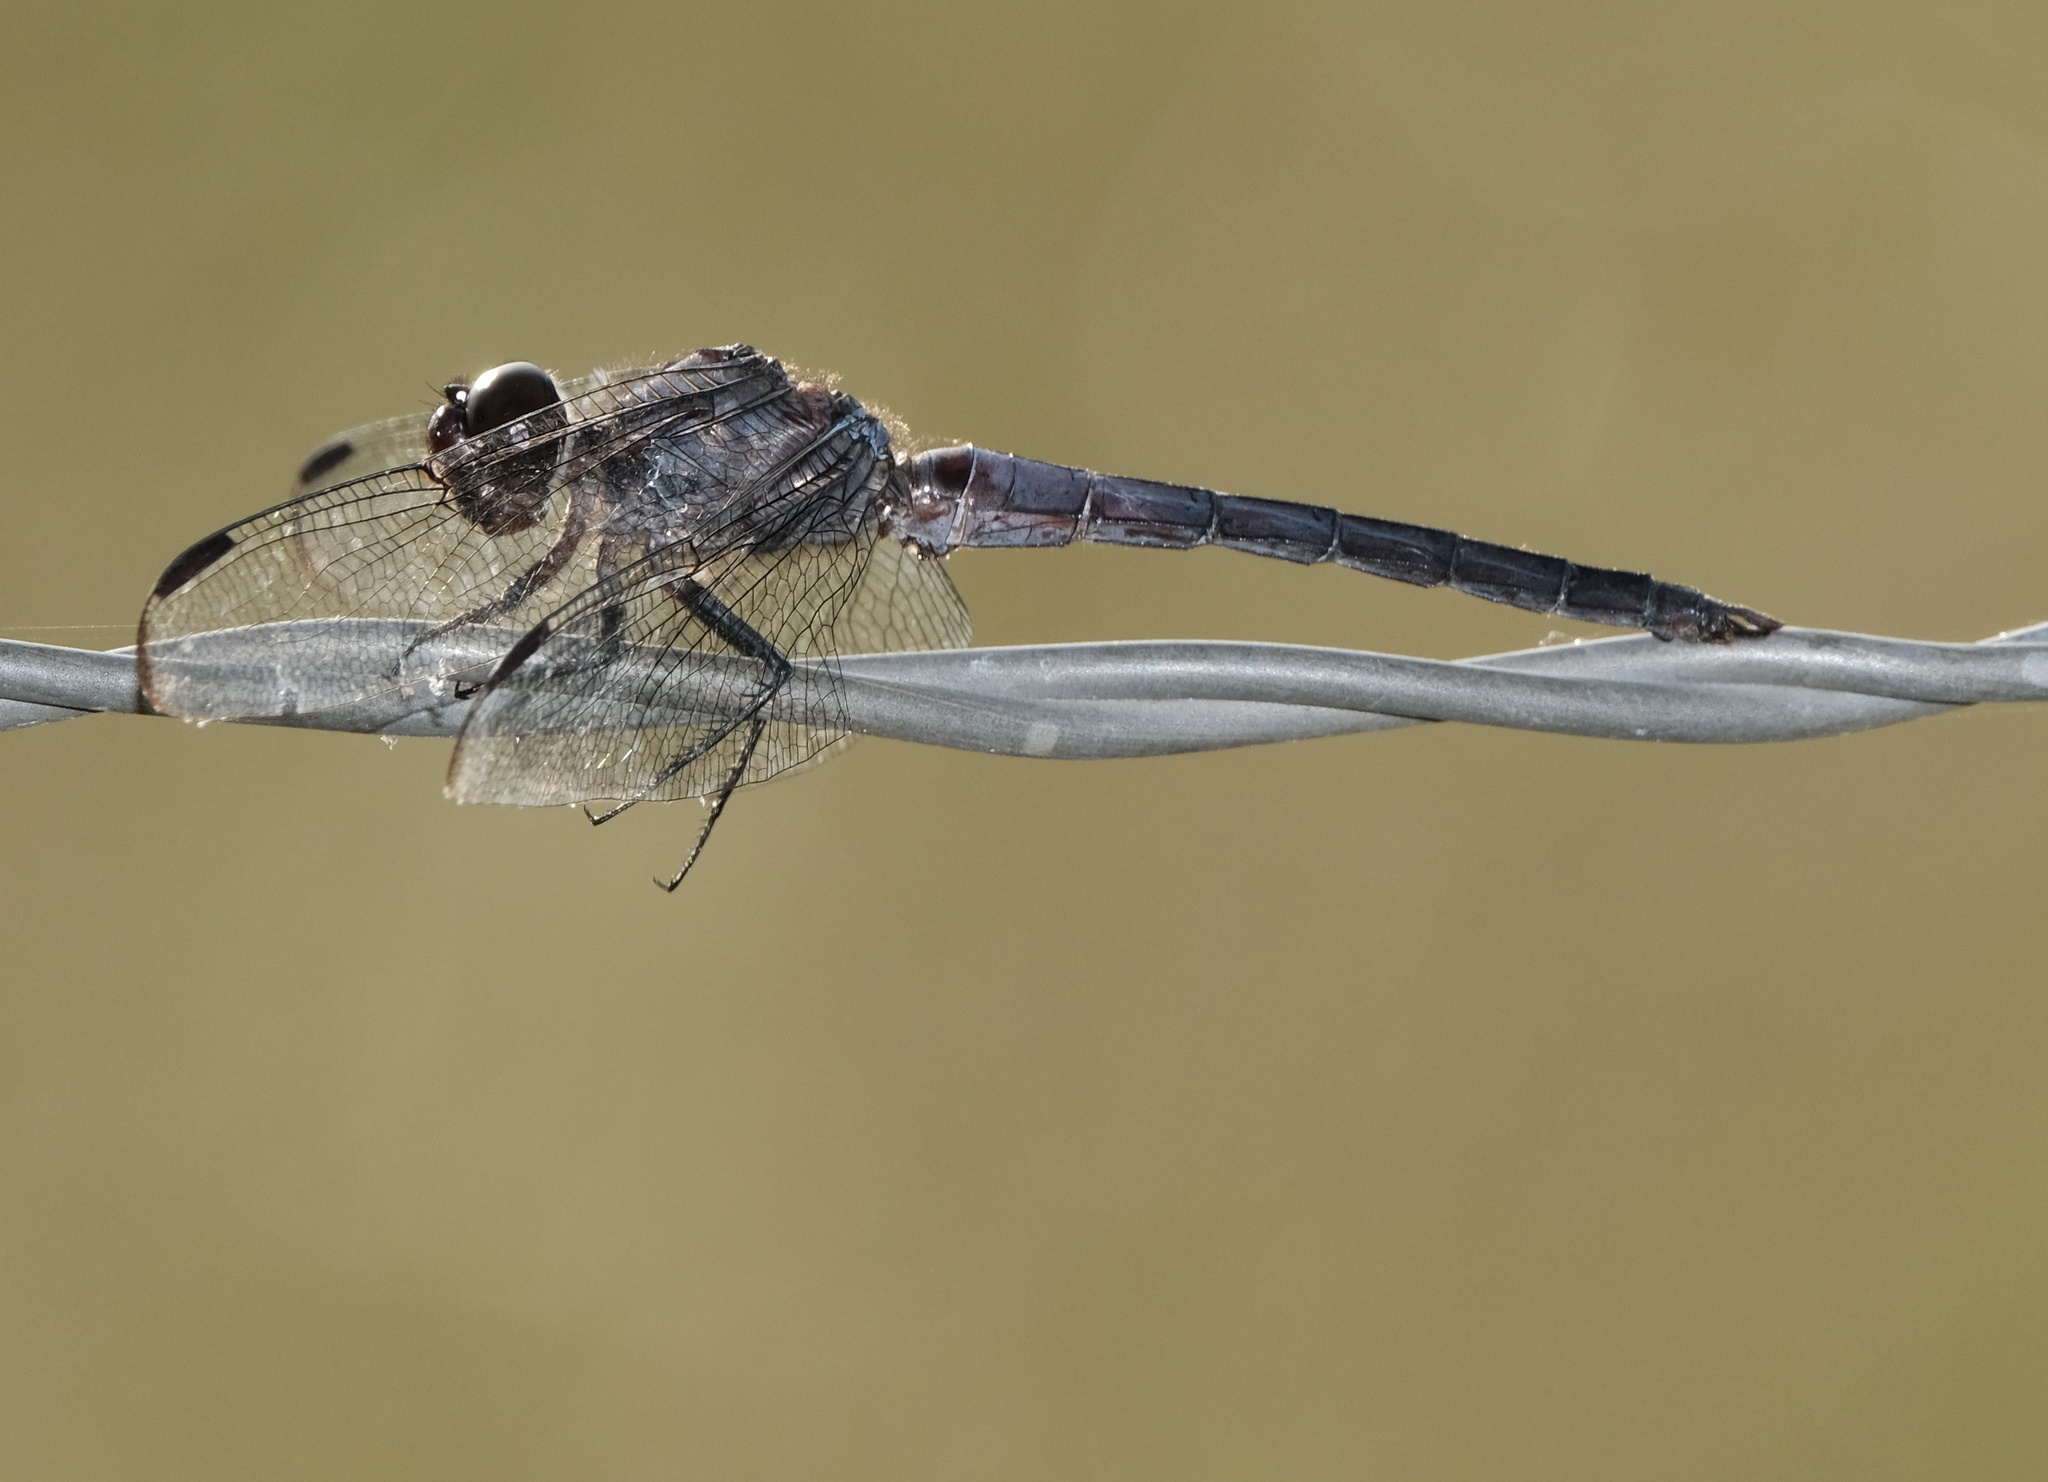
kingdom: Animalia
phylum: Arthropoda
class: Insecta
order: Odonata
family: Libellulidae
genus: Libellula
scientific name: Libellula incesta
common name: Slaty skimmer
